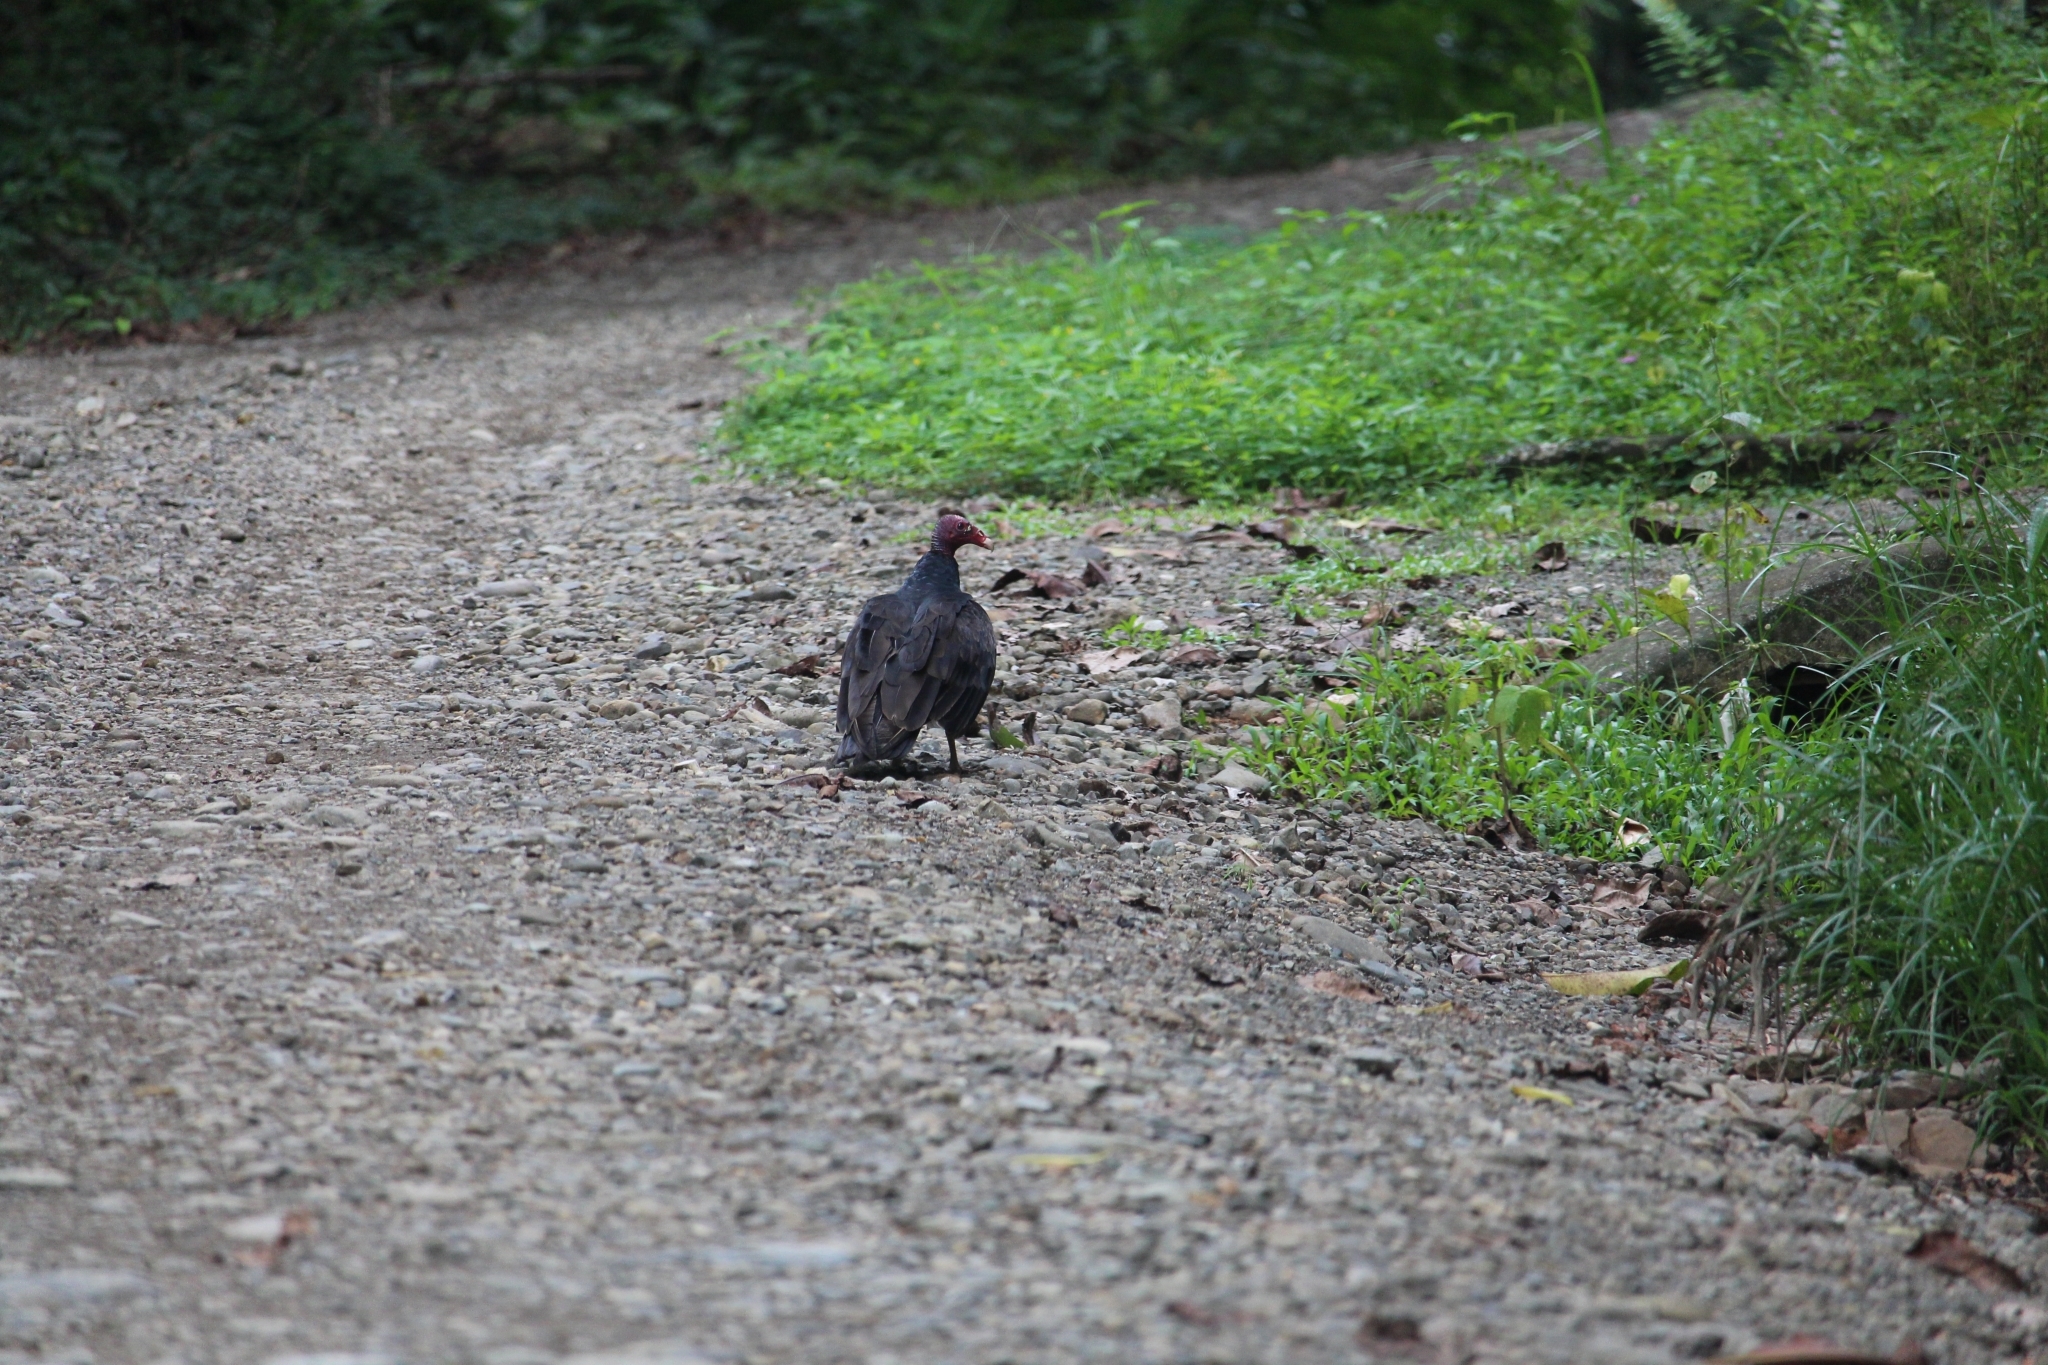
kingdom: Animalia
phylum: Chordata
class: Aves
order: Accipitriformes
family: Cathartidae
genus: Cathartes
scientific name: Cathartes aura
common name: Turkey vulture
